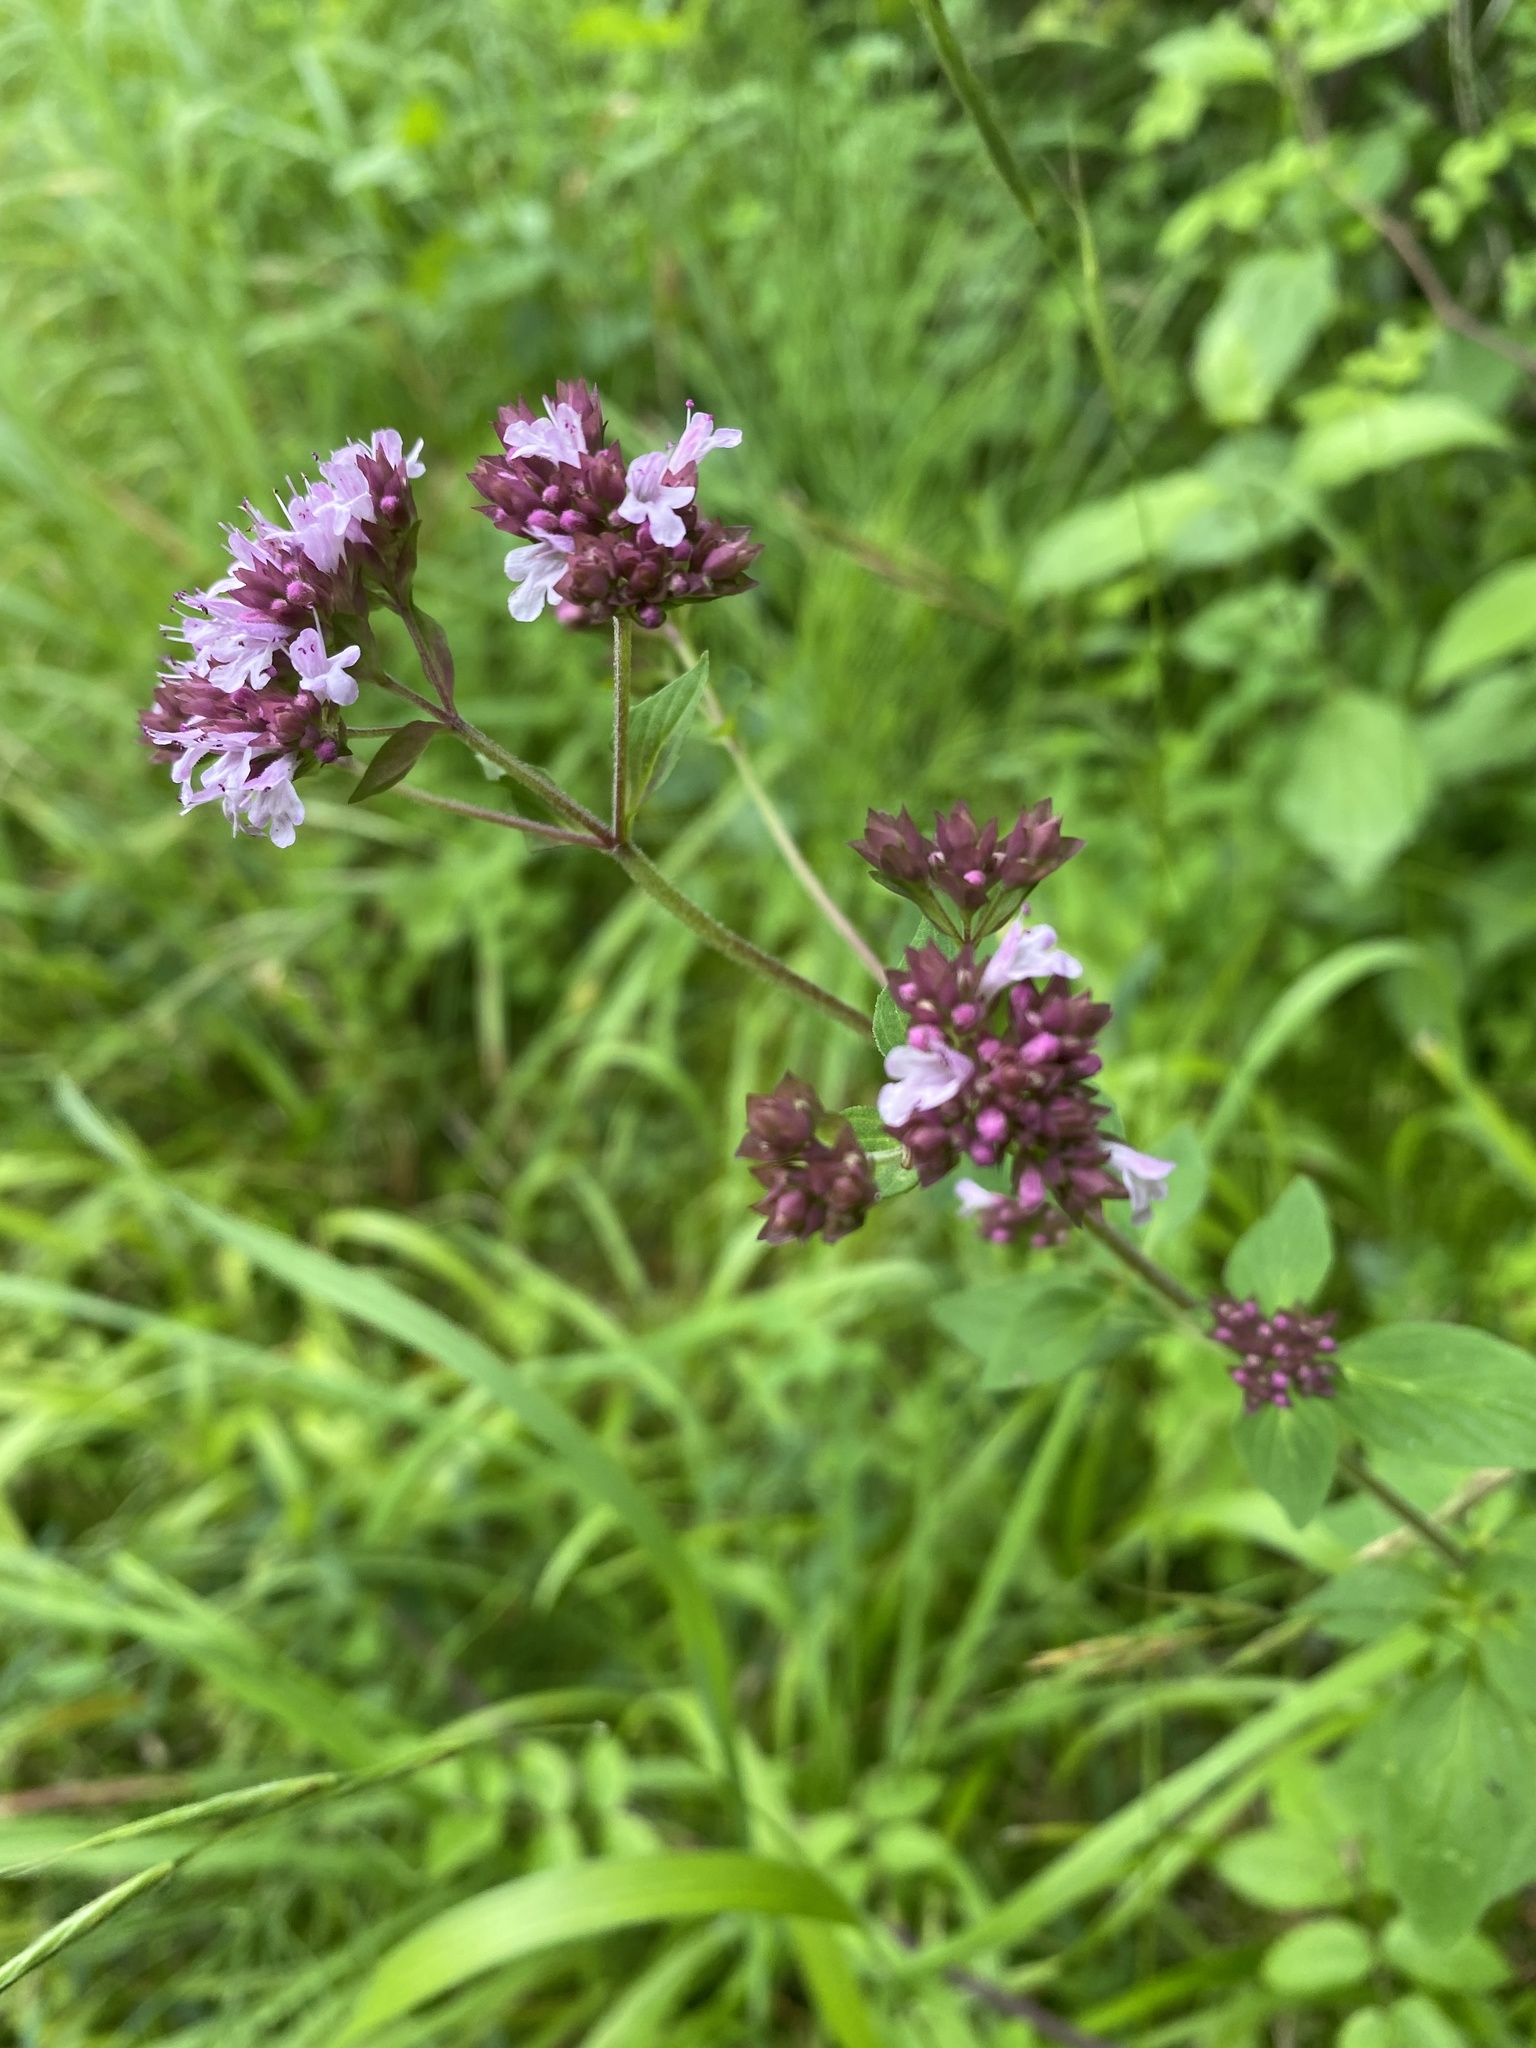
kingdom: Plantae
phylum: Tracheophyta
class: Magnoliopsida
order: Lamiales
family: Lamiaceae
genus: Origanum
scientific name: Origanum vulgare
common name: Wild marjoram
